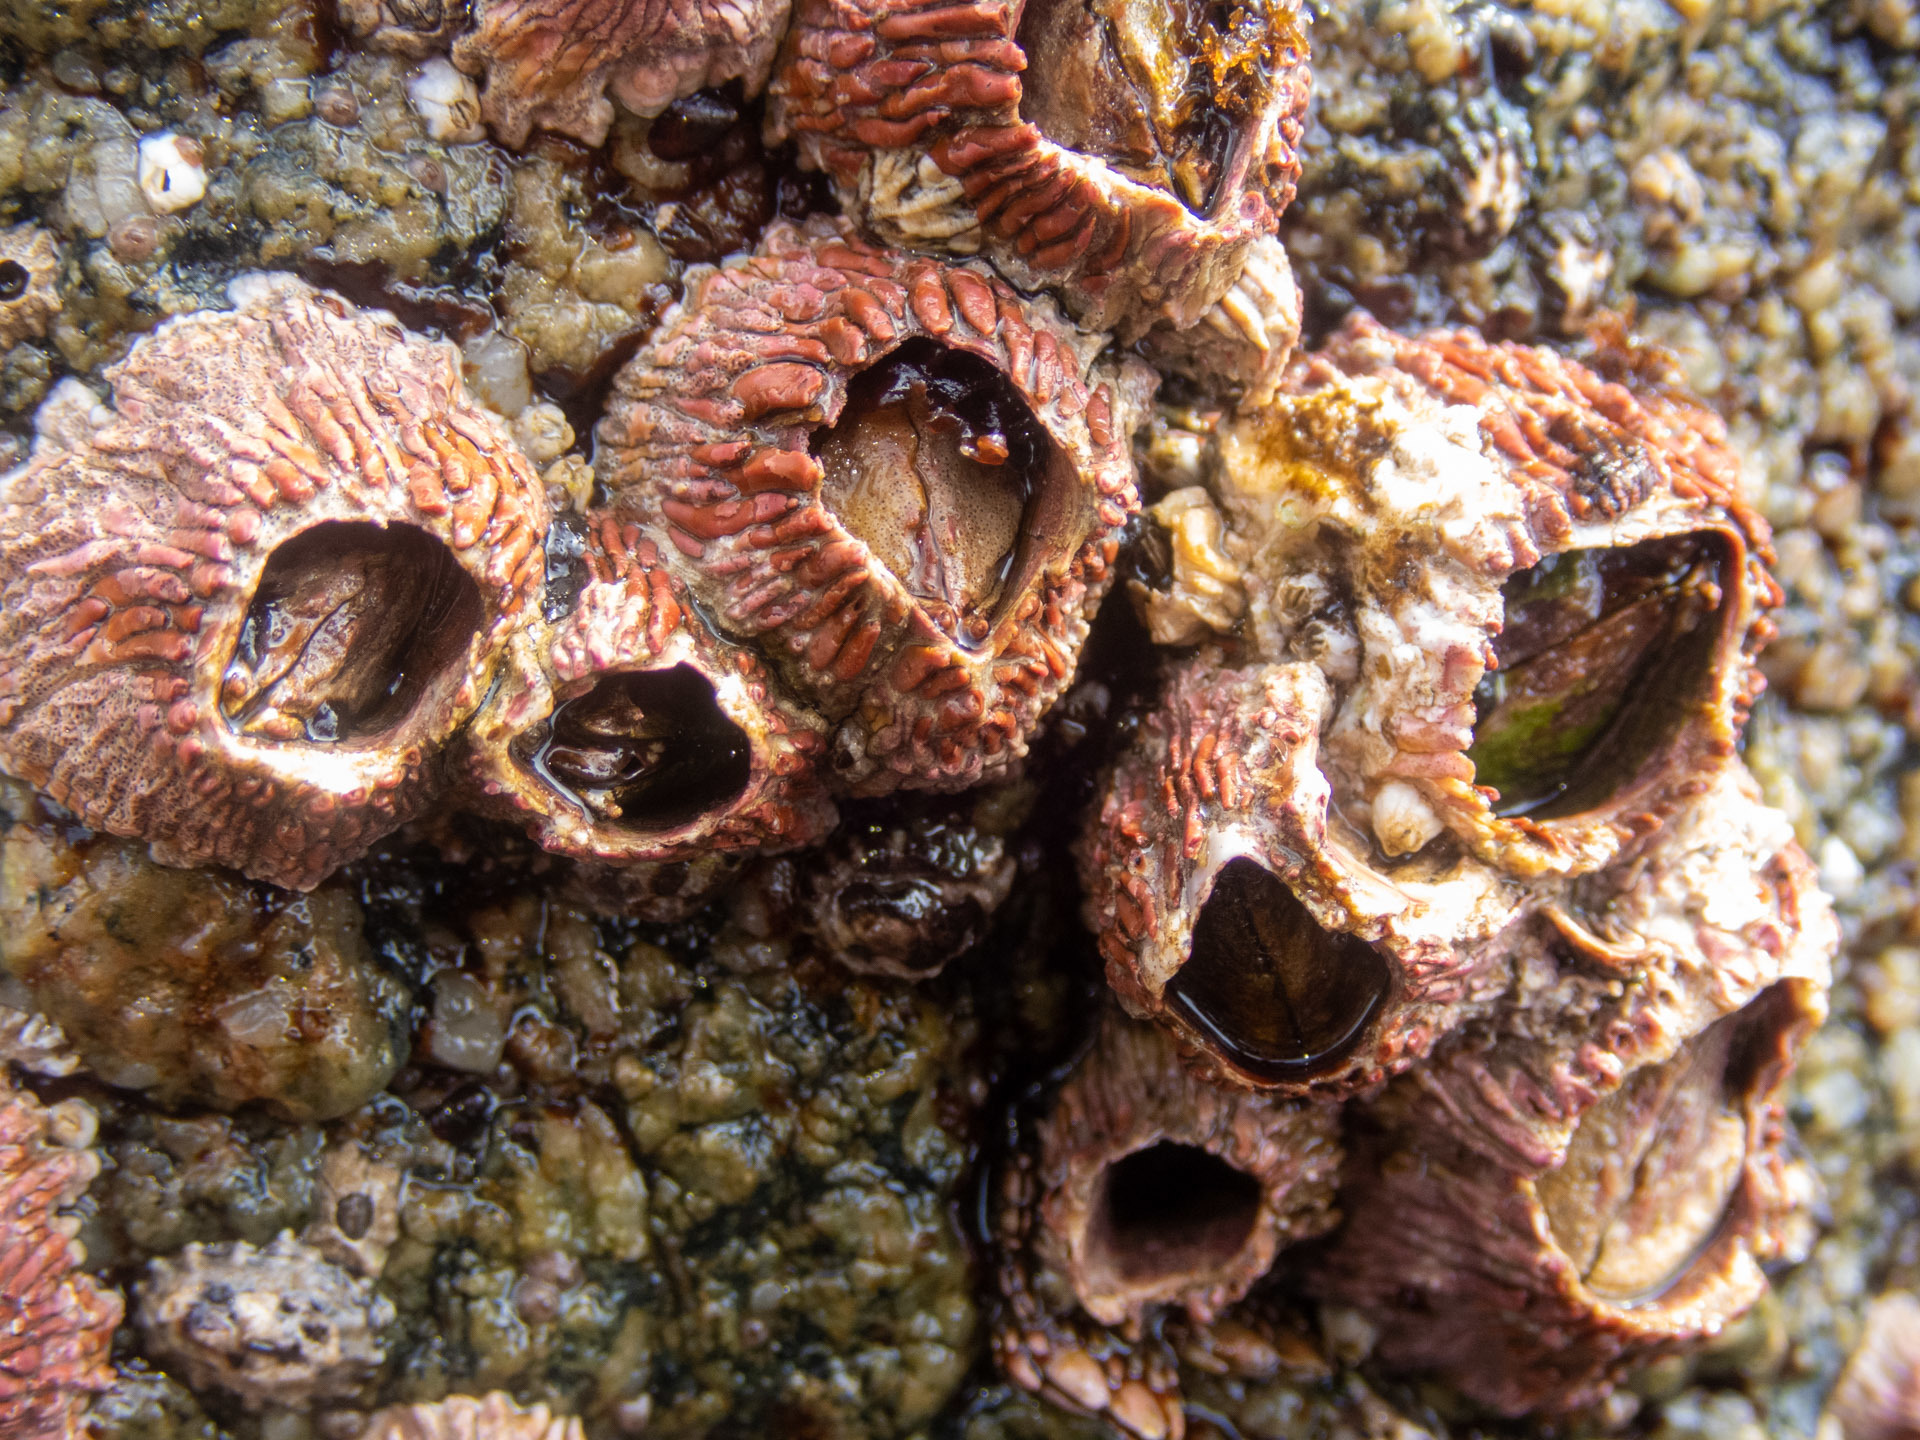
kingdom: Animalia
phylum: Arthropoda
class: Maxillopoda
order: Sessilia
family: Tetraclitidae
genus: Tetraclita
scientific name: Tetraclita rubescens
